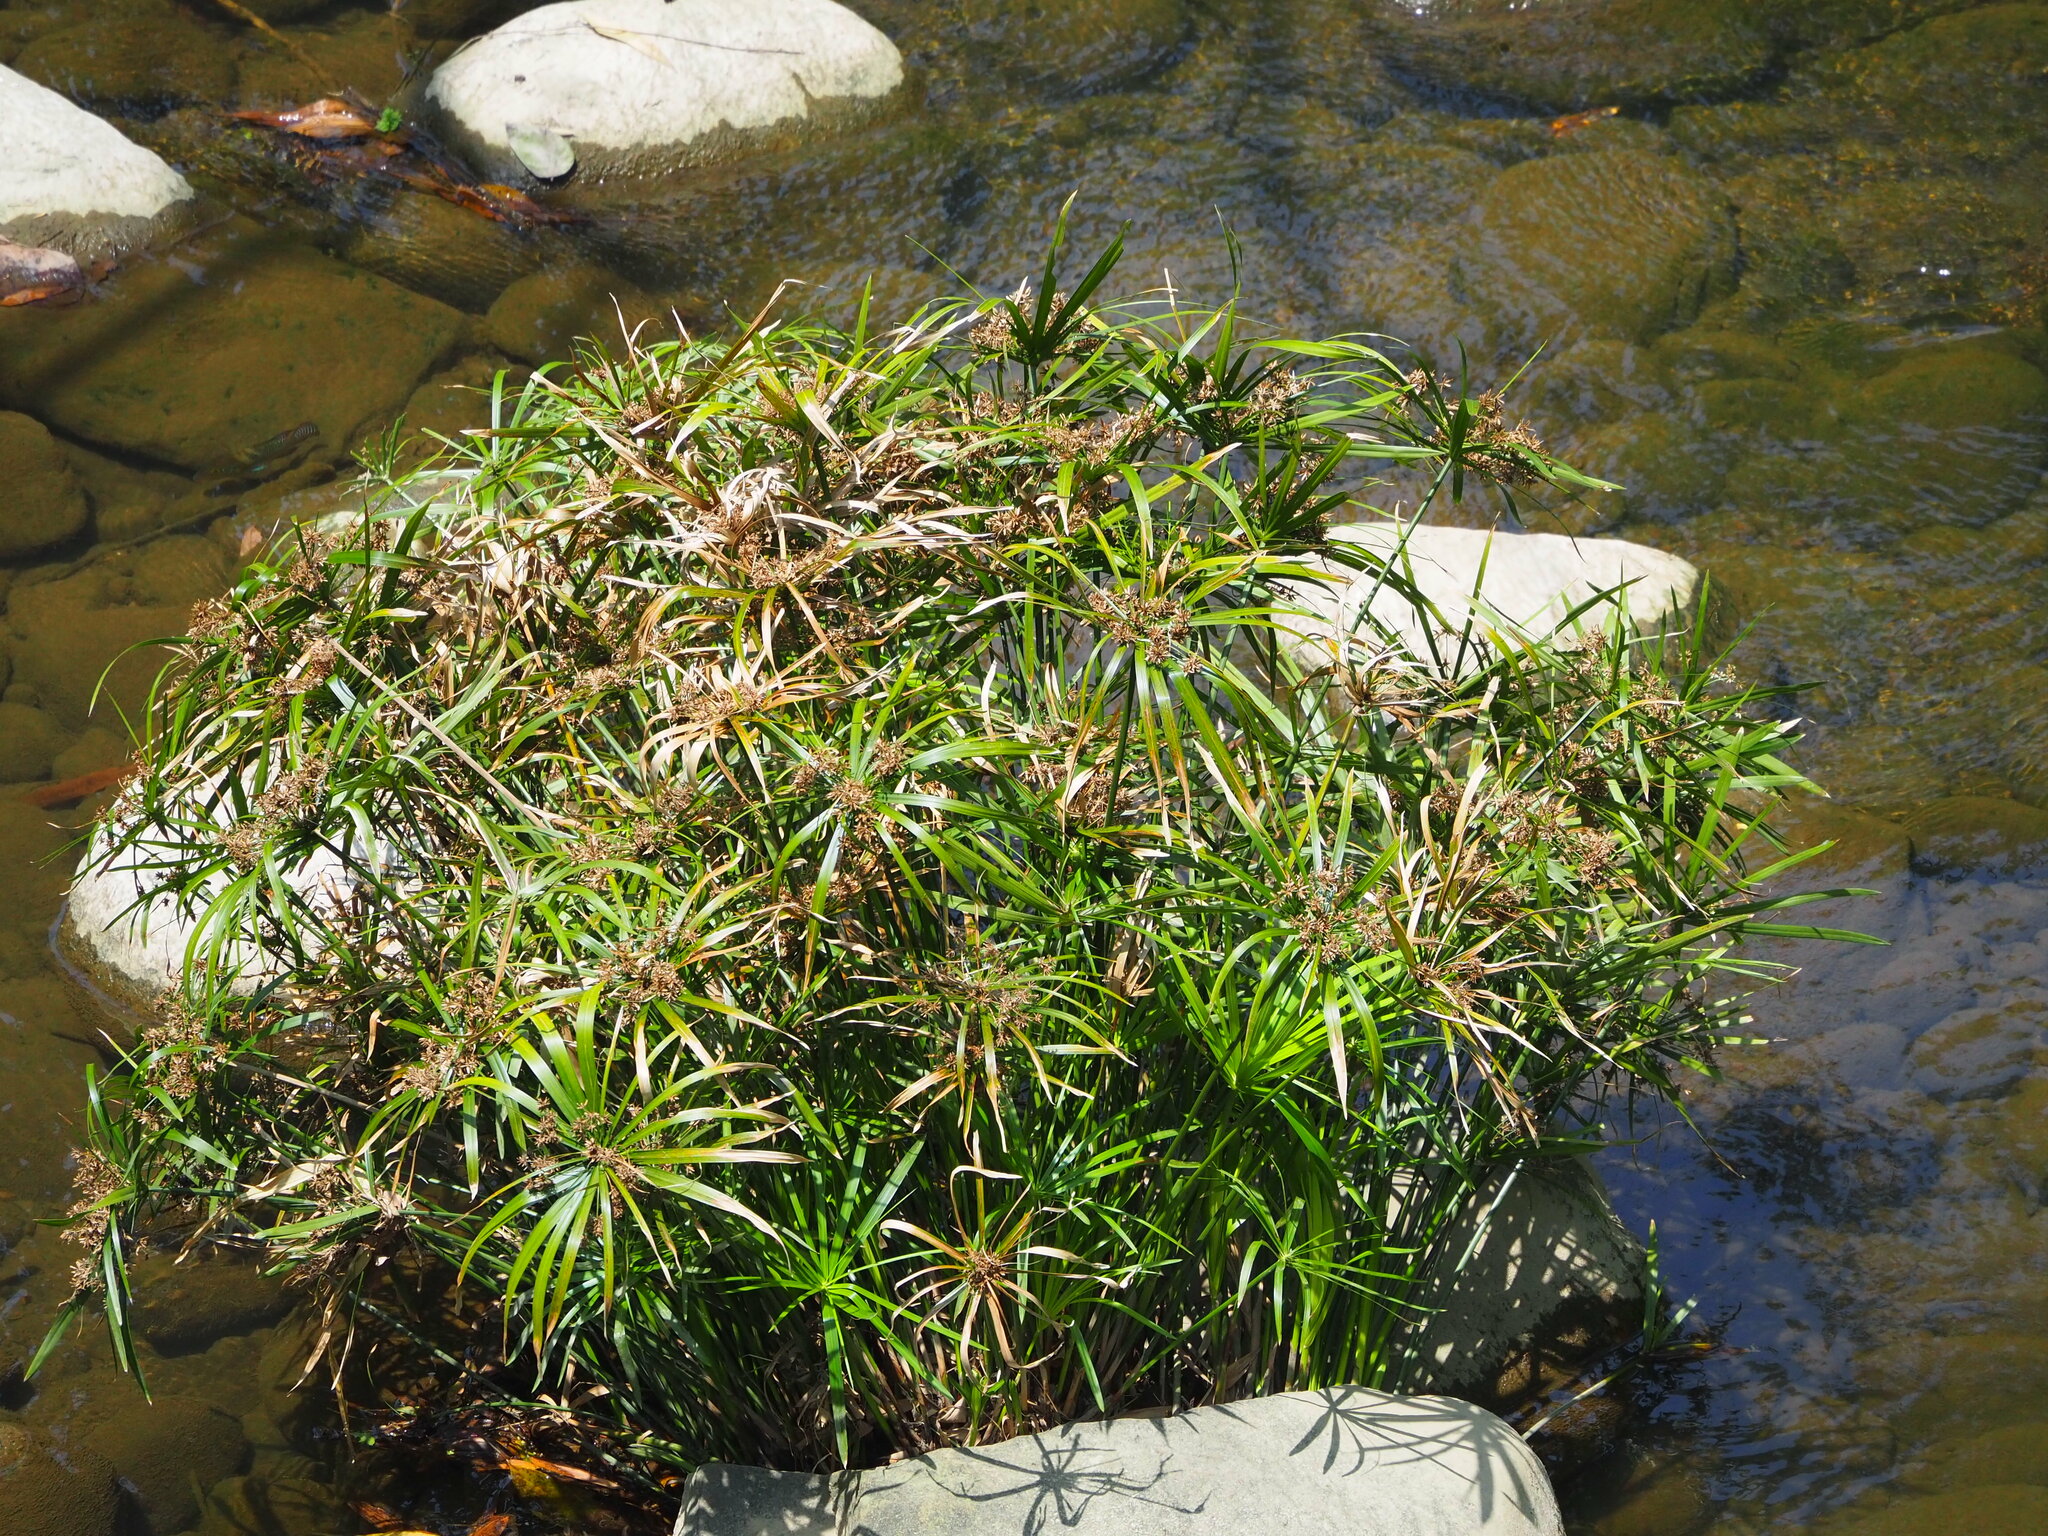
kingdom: Plantae
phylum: Tracheophyta
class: Liliopsida
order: Poales
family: Cyperaceae
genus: Cyperus
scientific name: Cyperus alternifolius
